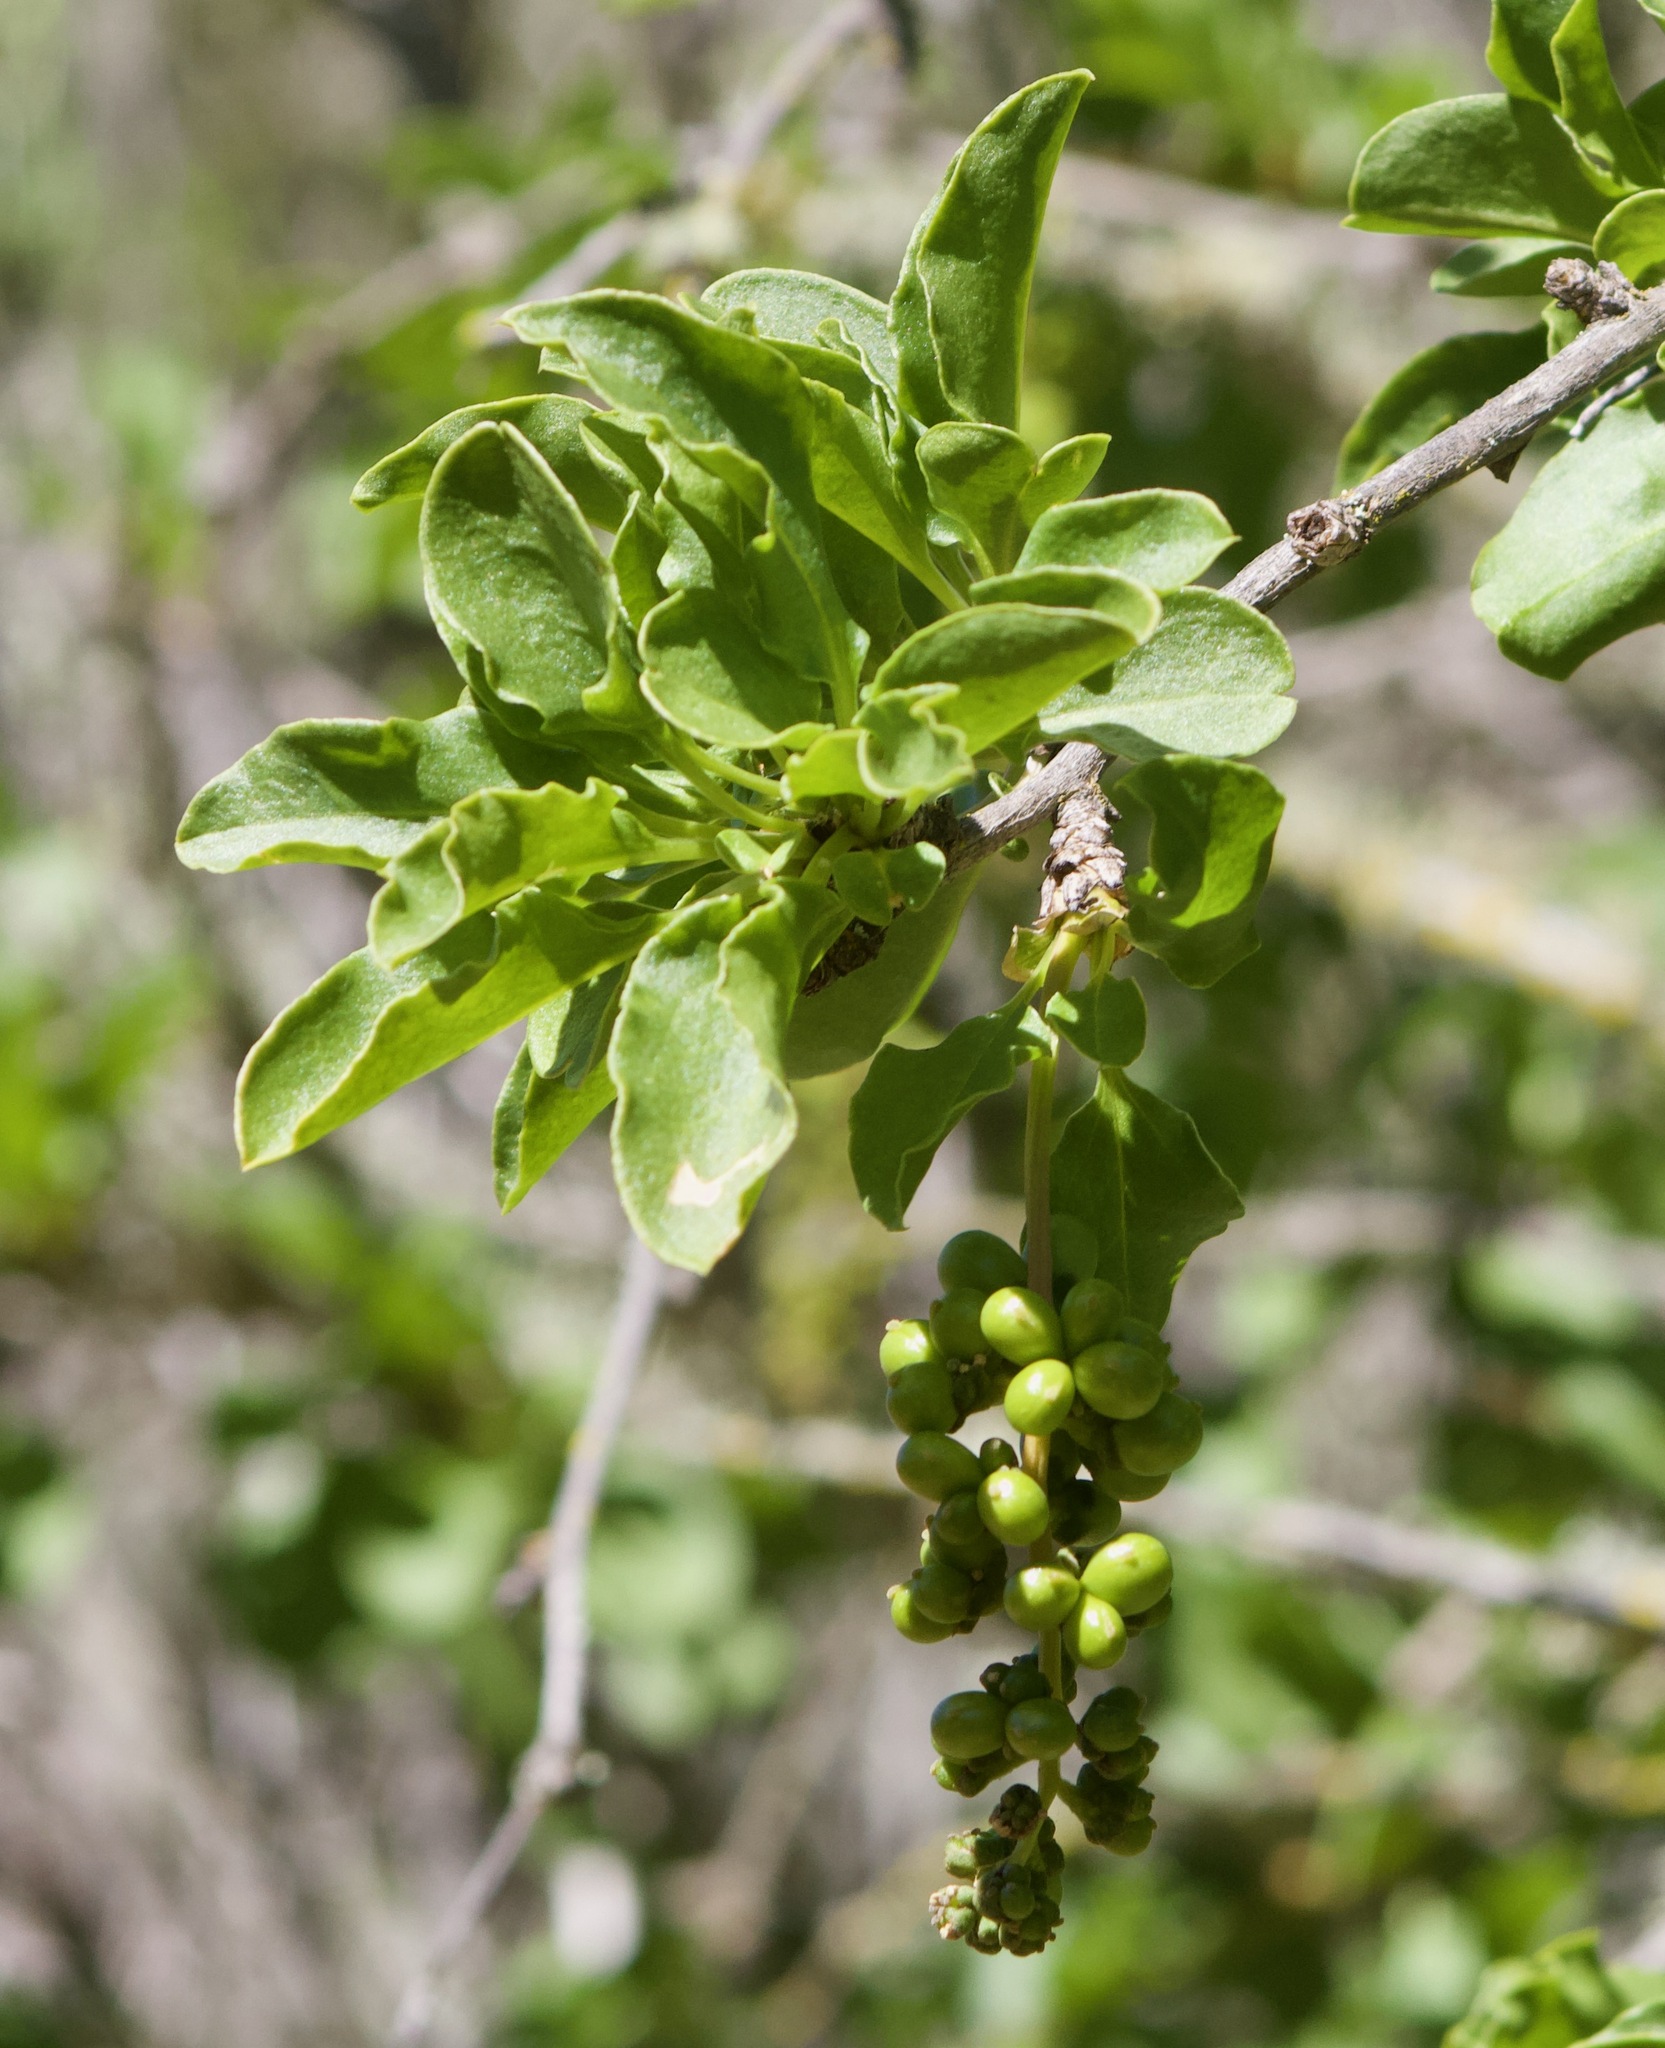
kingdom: Plantae
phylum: Tracheophyta
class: Magnoliopsida
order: Caryophyllales
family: Phytolaccaceae
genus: Anisomeria
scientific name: Anisomeria littoralis
